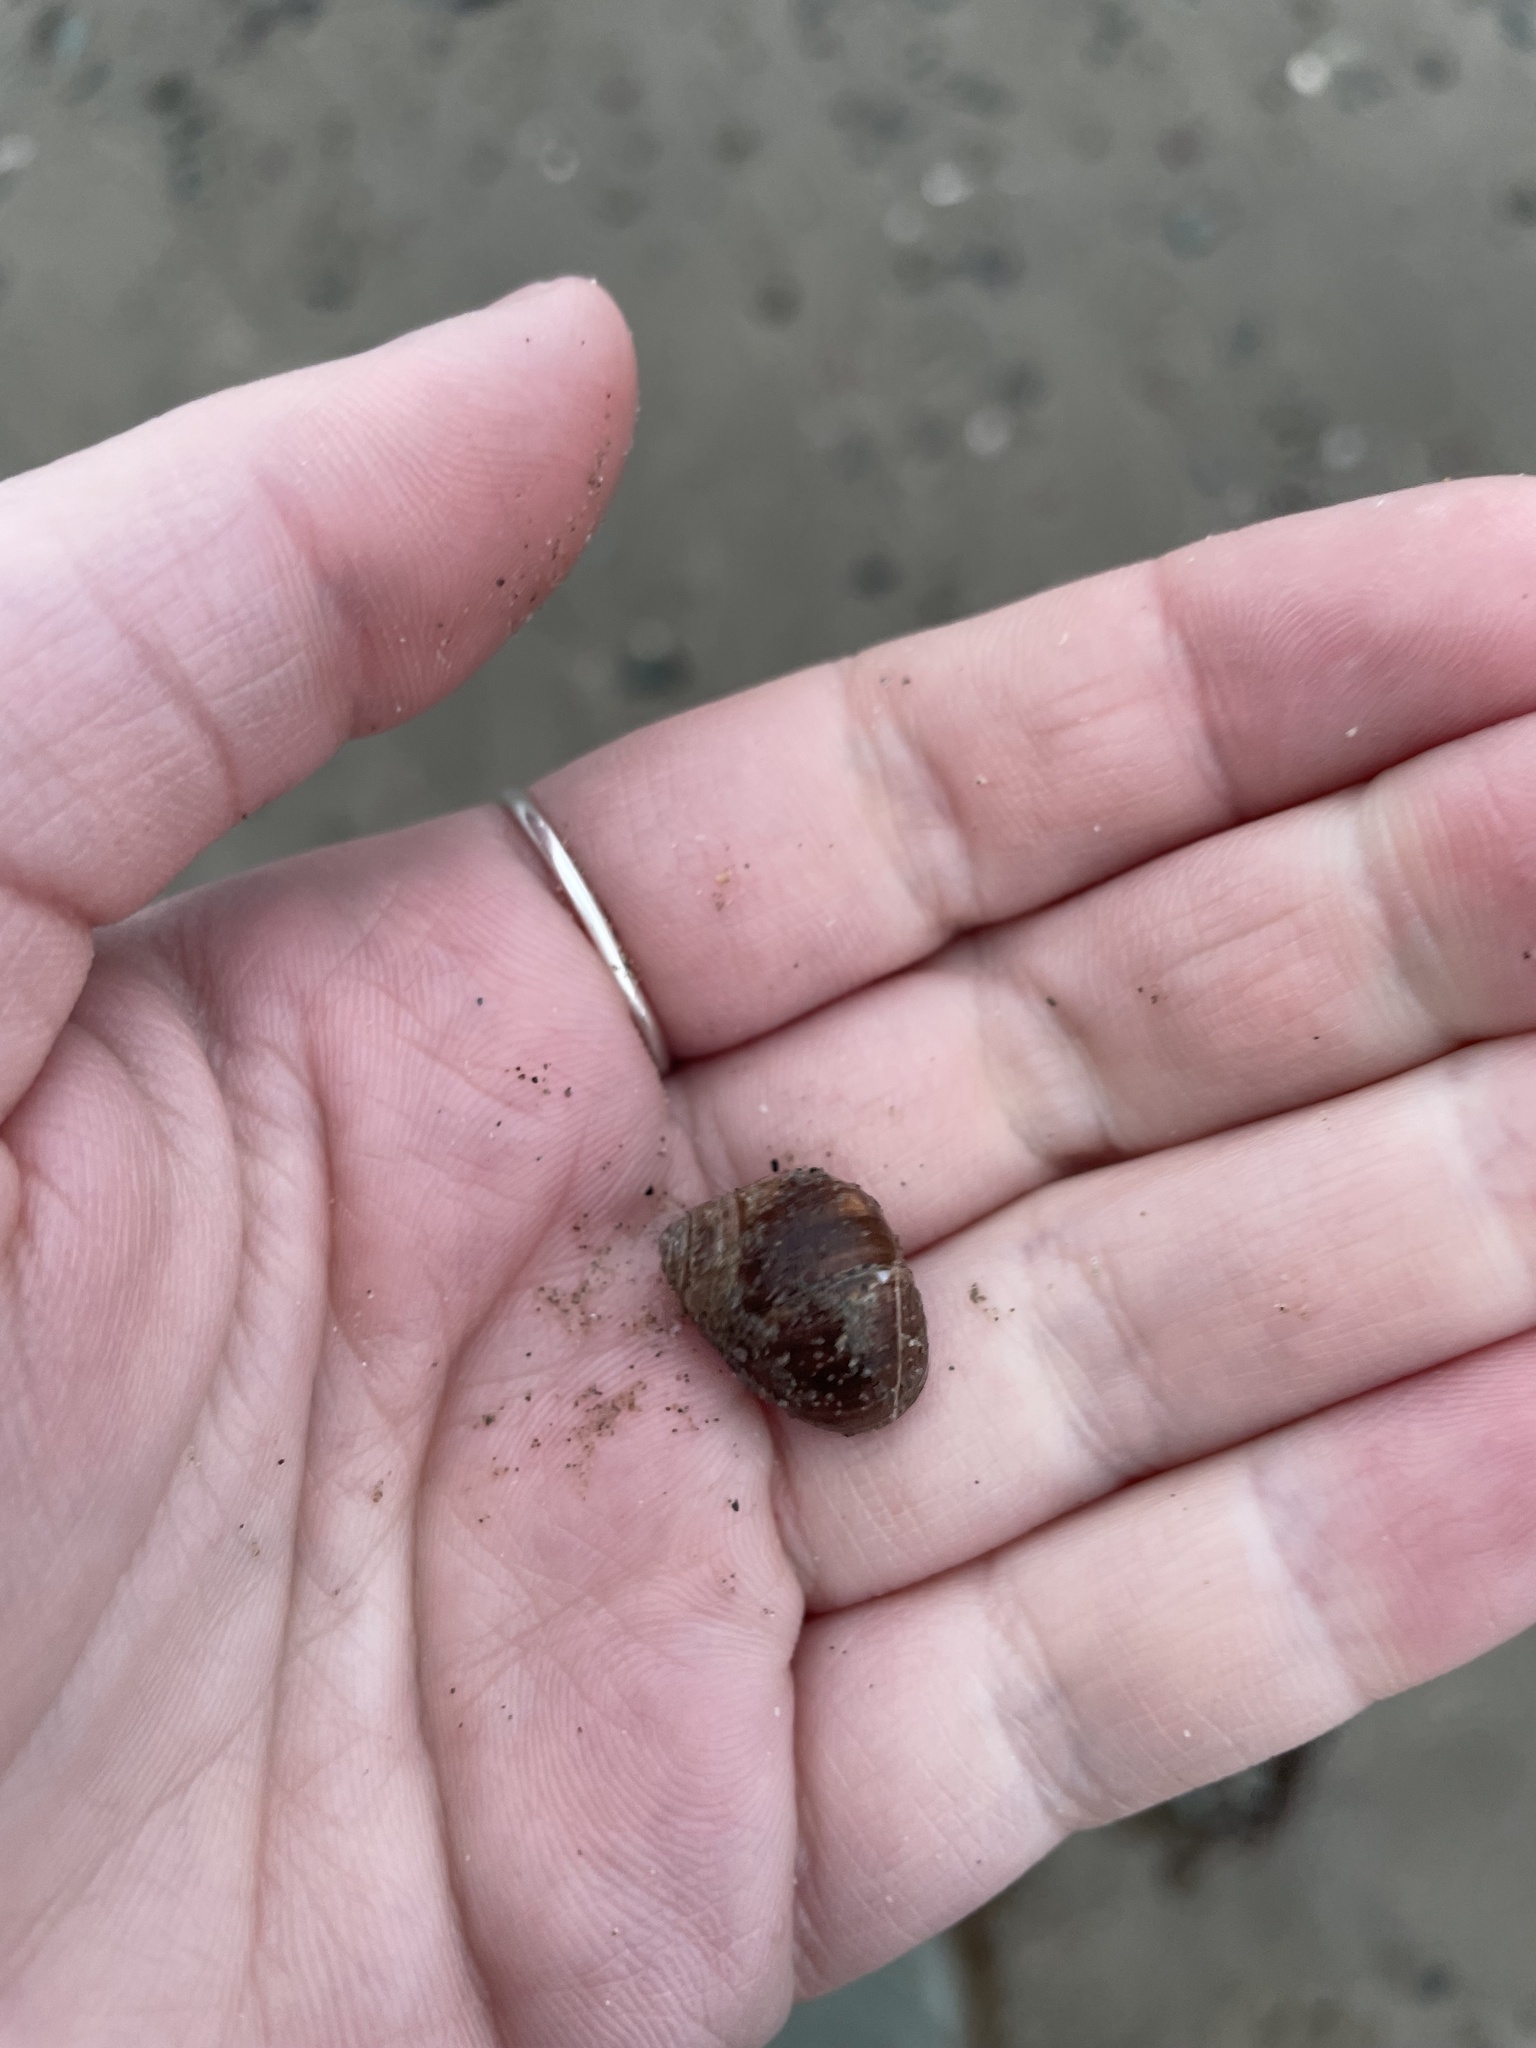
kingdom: Animalia
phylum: Mollusca
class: Gastropoda
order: Littorinimorpha
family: Littorinidae
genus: Littorina
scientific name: Littorina littorea
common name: Common periwinkle
